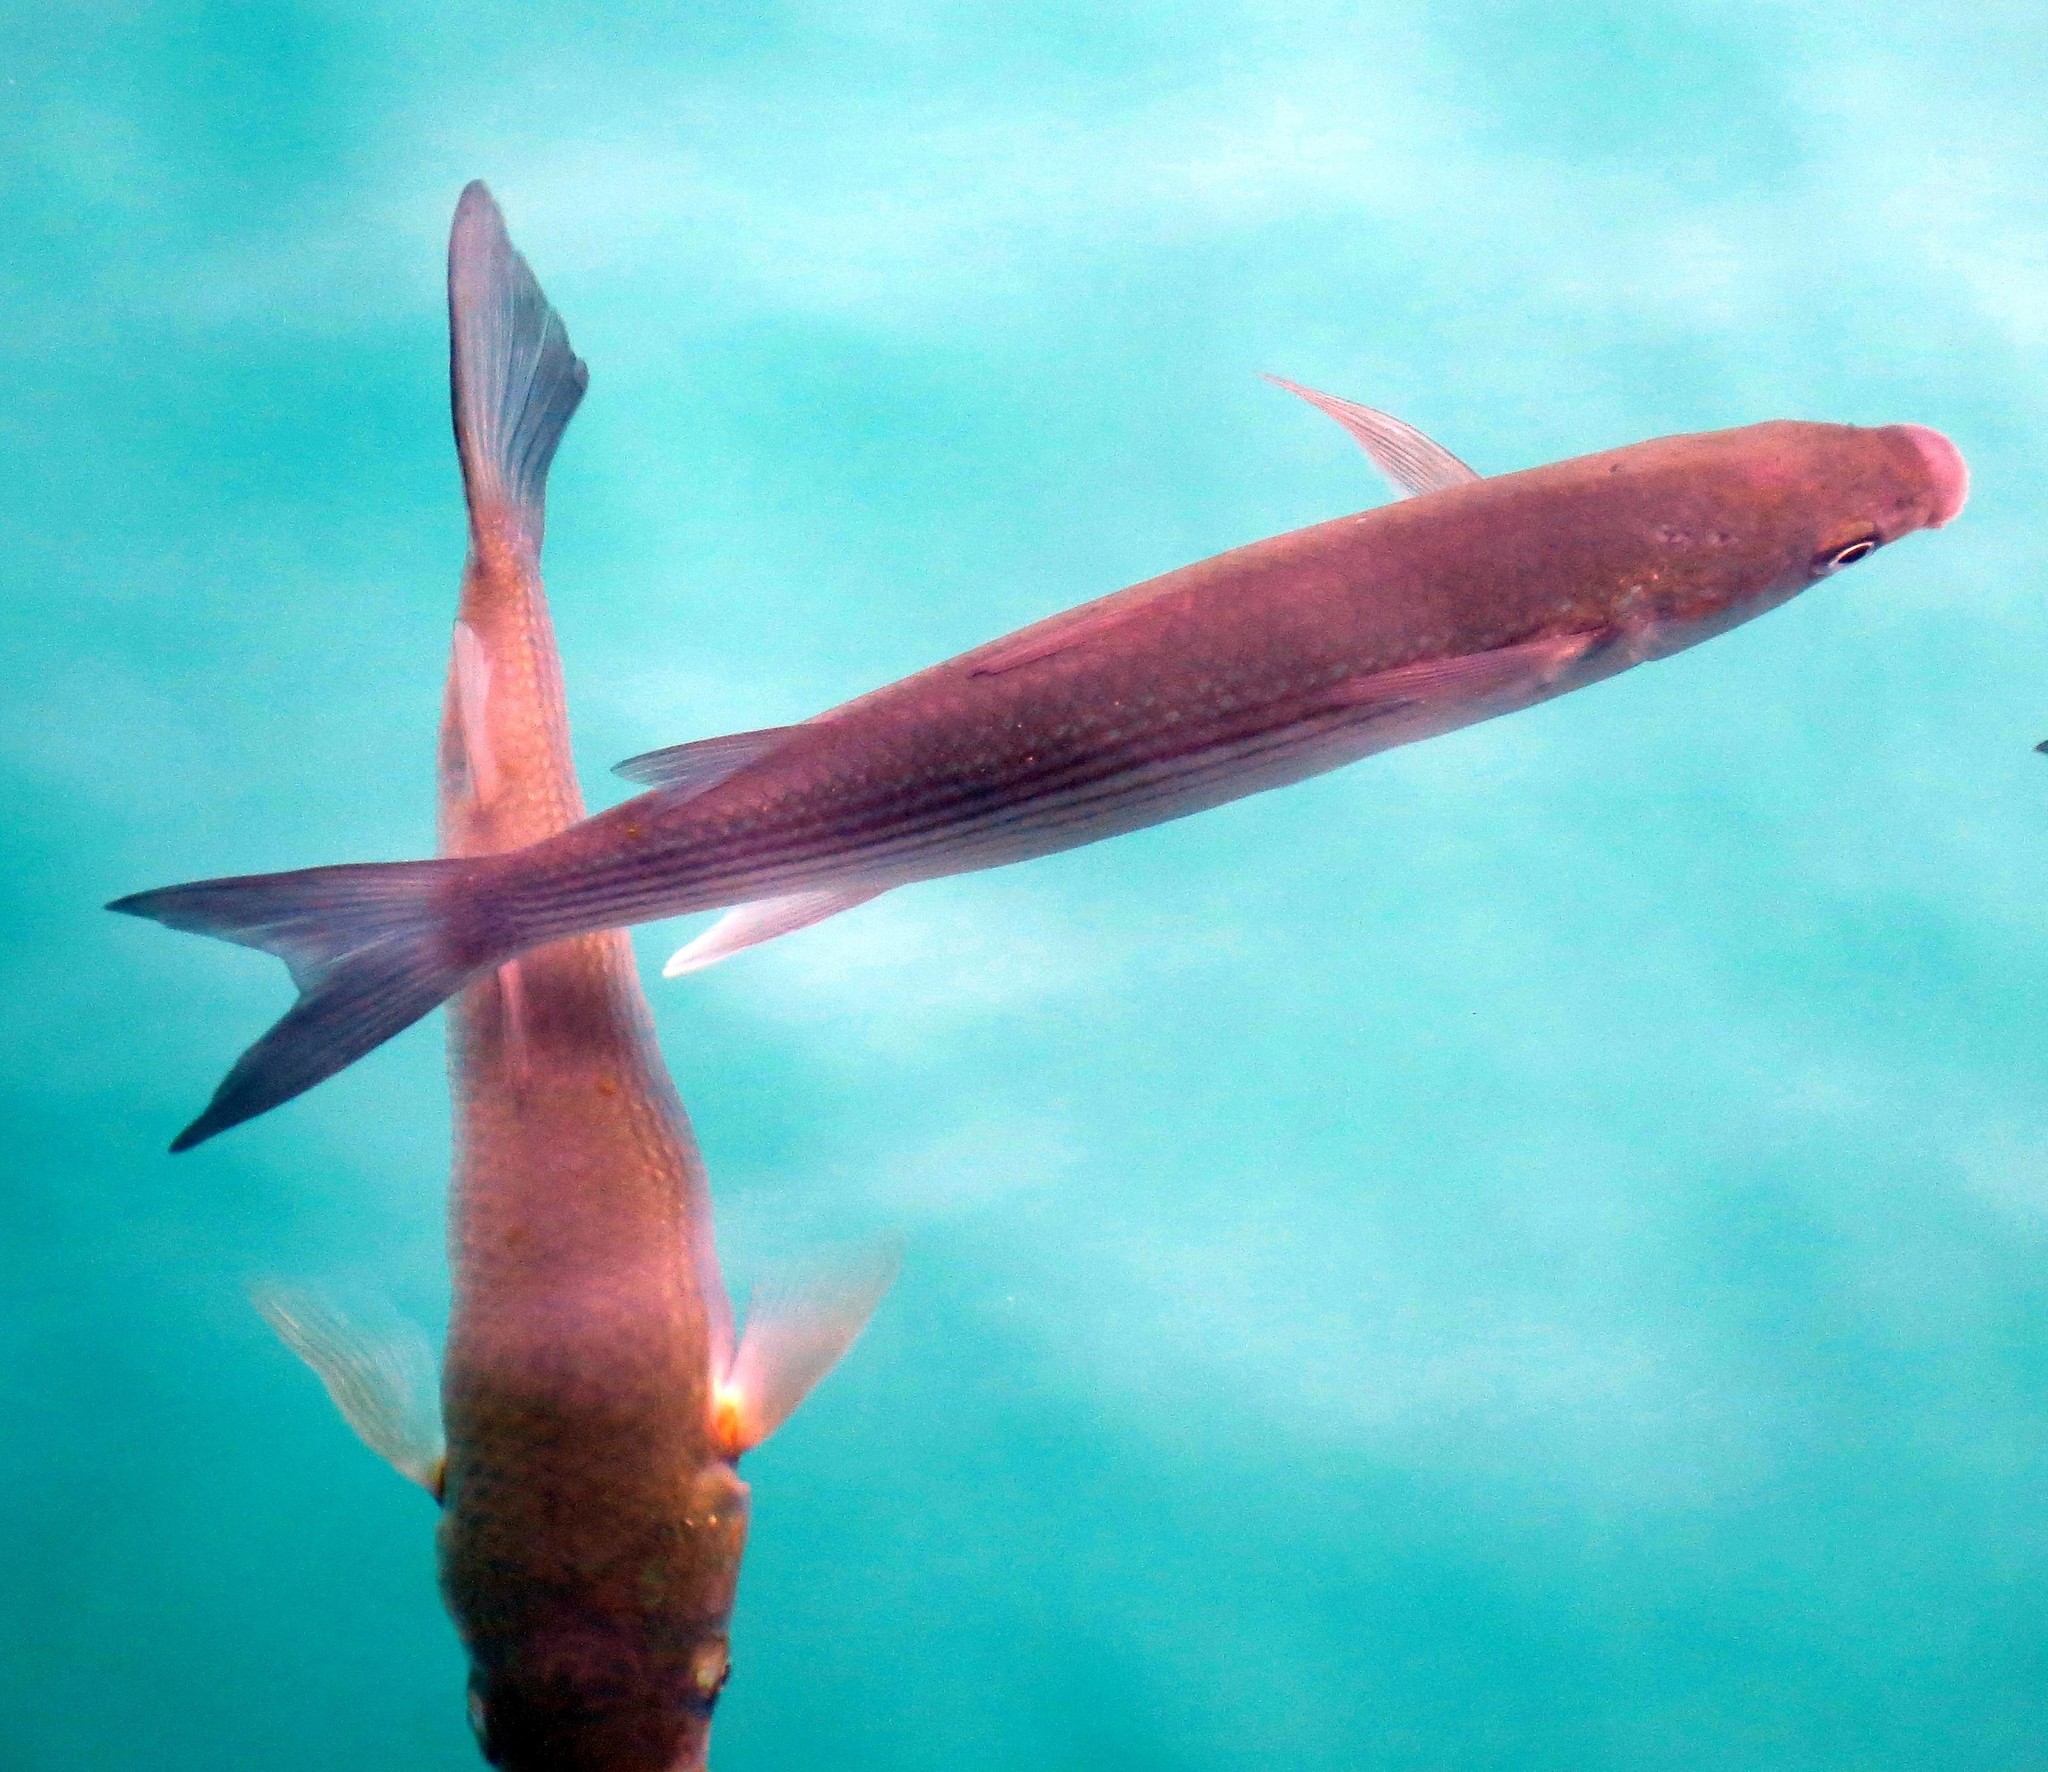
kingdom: Animalia
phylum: Chordata
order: Mugiliformes
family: Mugilidae
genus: Chelon
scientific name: Chelon labrosus
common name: Thick-lipped mullet
